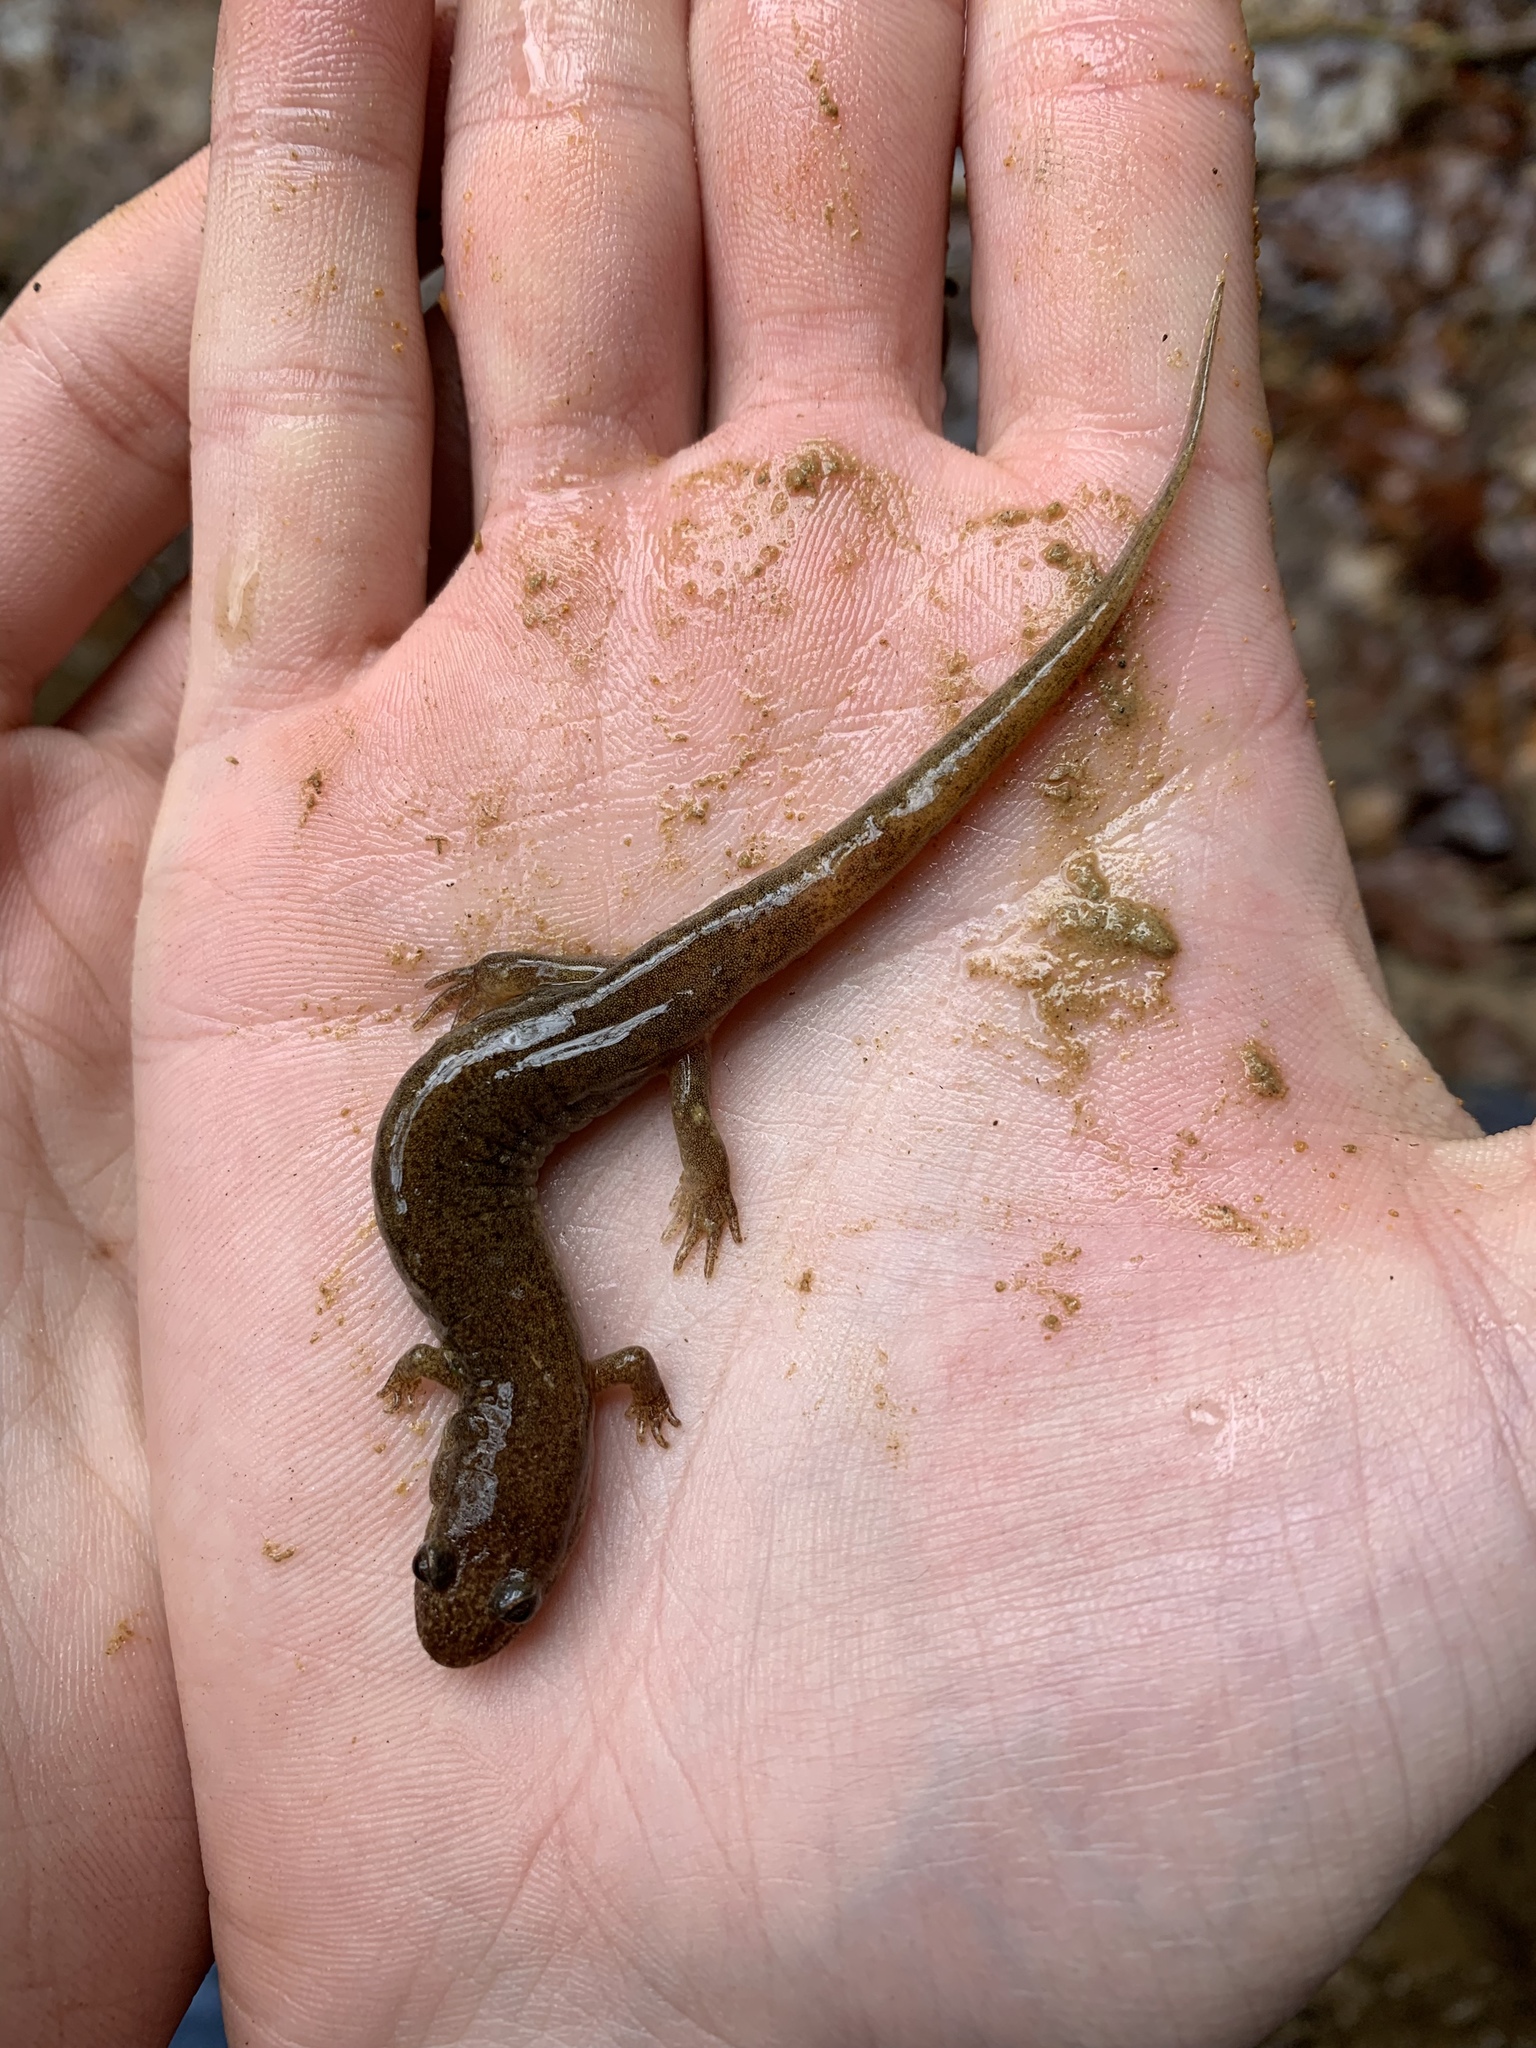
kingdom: Animalia
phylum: Chordata
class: Amphibia
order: Caudata
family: Plethodontidae
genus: Desmognathus
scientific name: Desmognathus conanti
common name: Spotted dusky salamander
